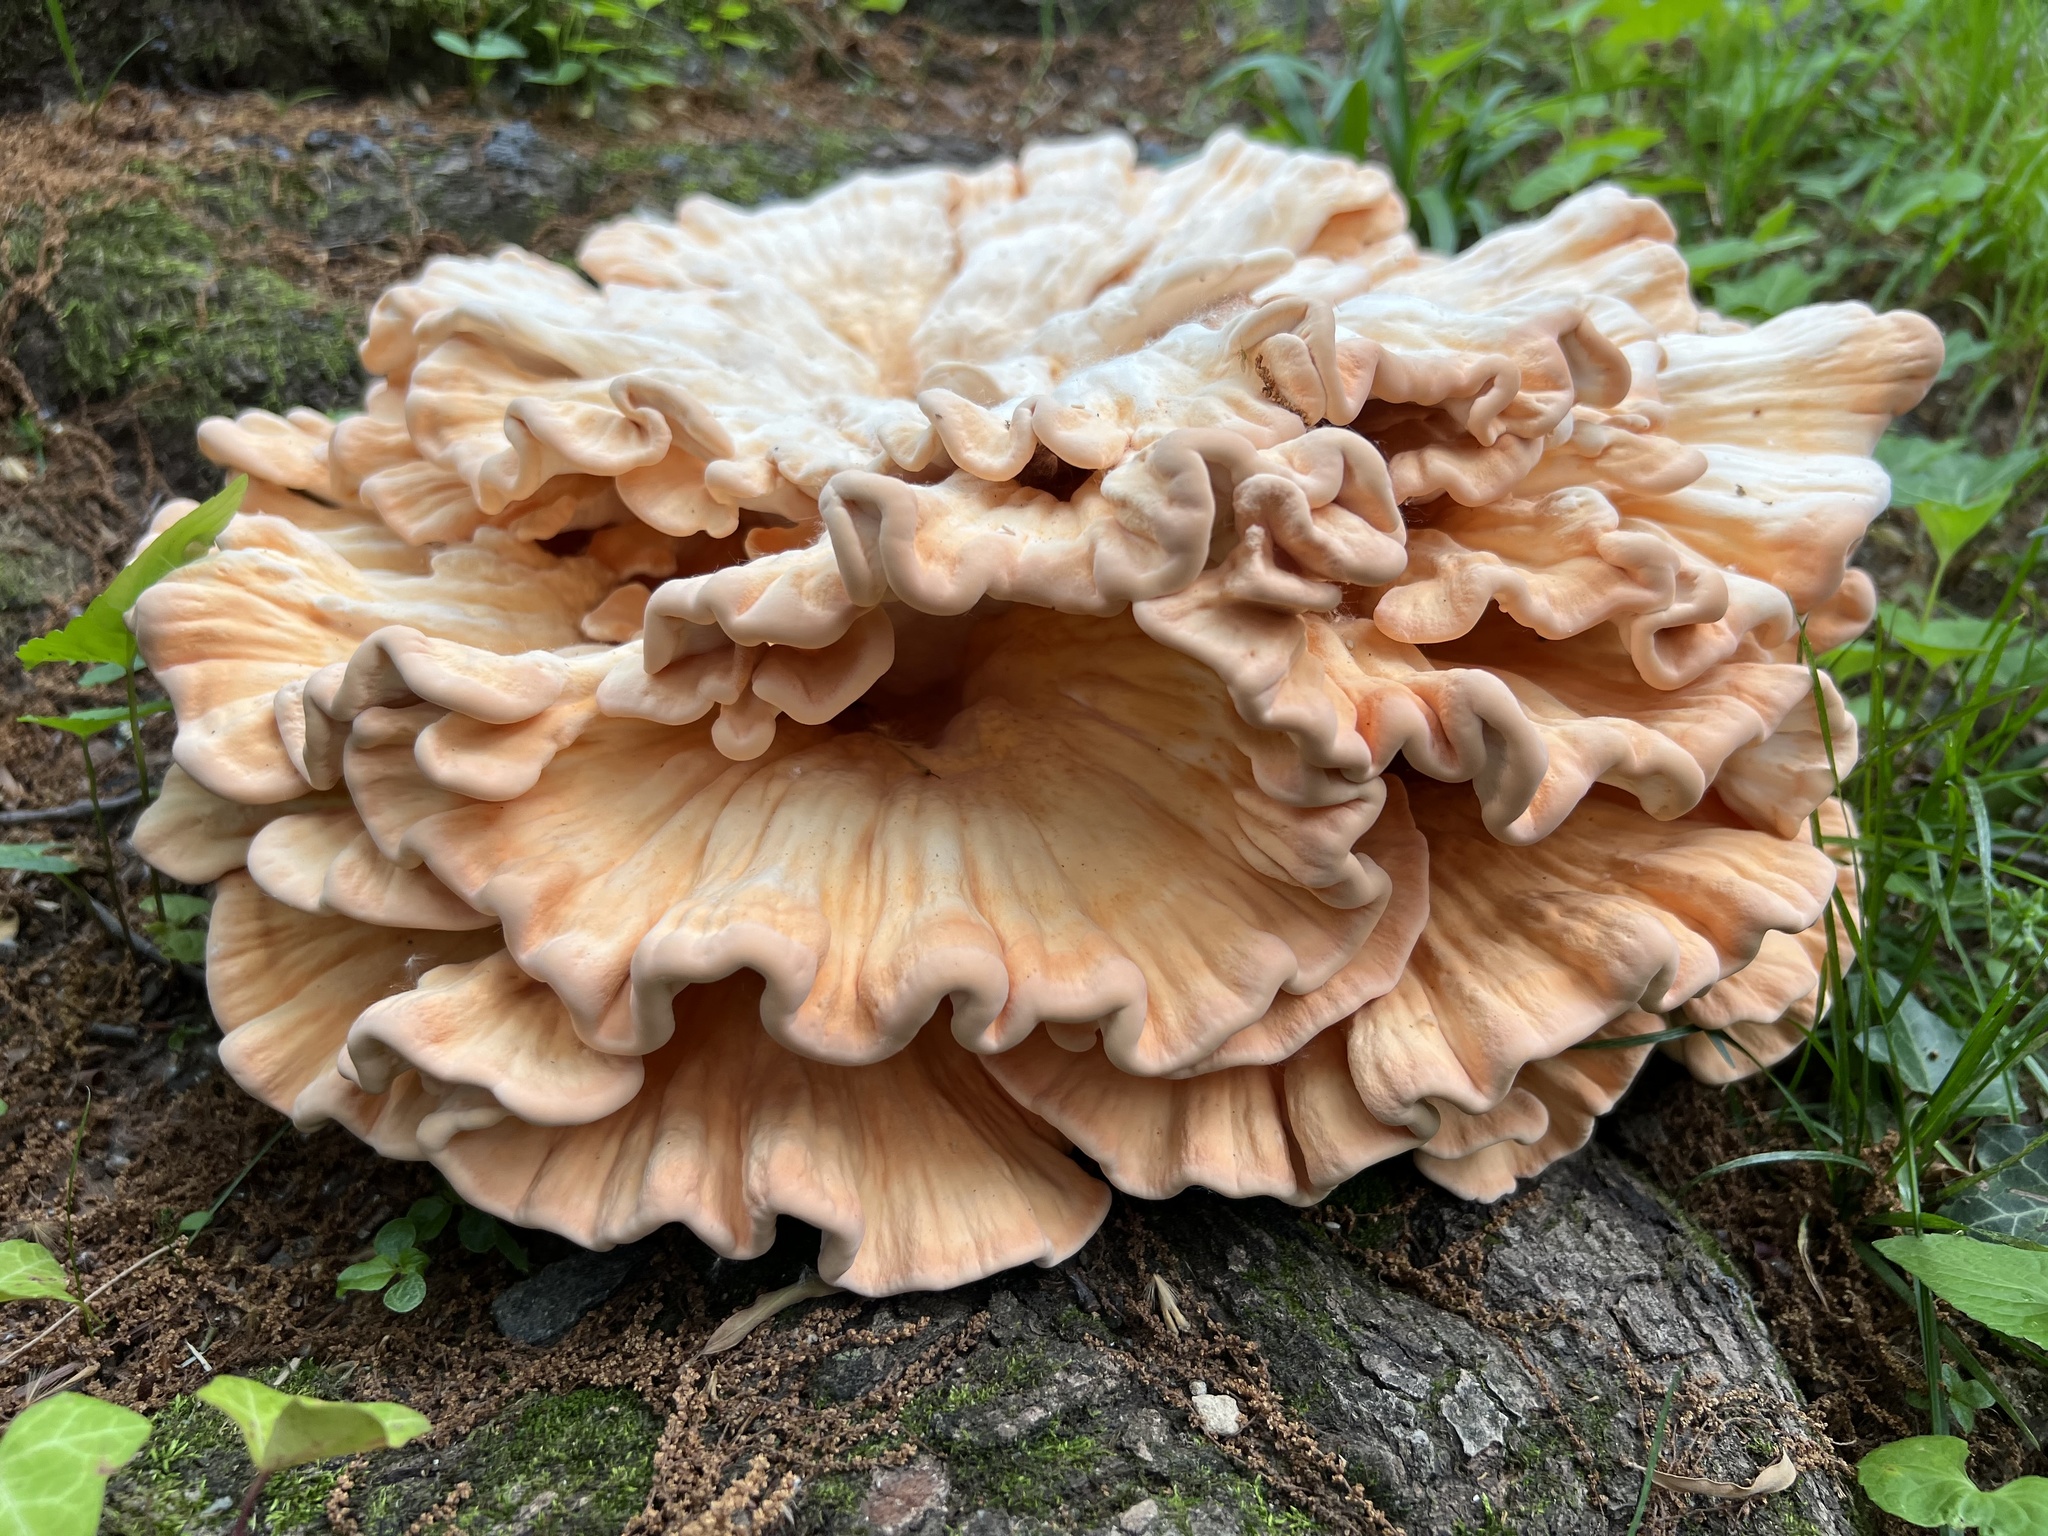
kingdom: Fungi
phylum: Basidiomycota
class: Agaricomycetes
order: Polyporales
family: Laetiporaceae
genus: Laetiporus
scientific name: Laetiporus sulphureus
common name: Chicken of the woods
